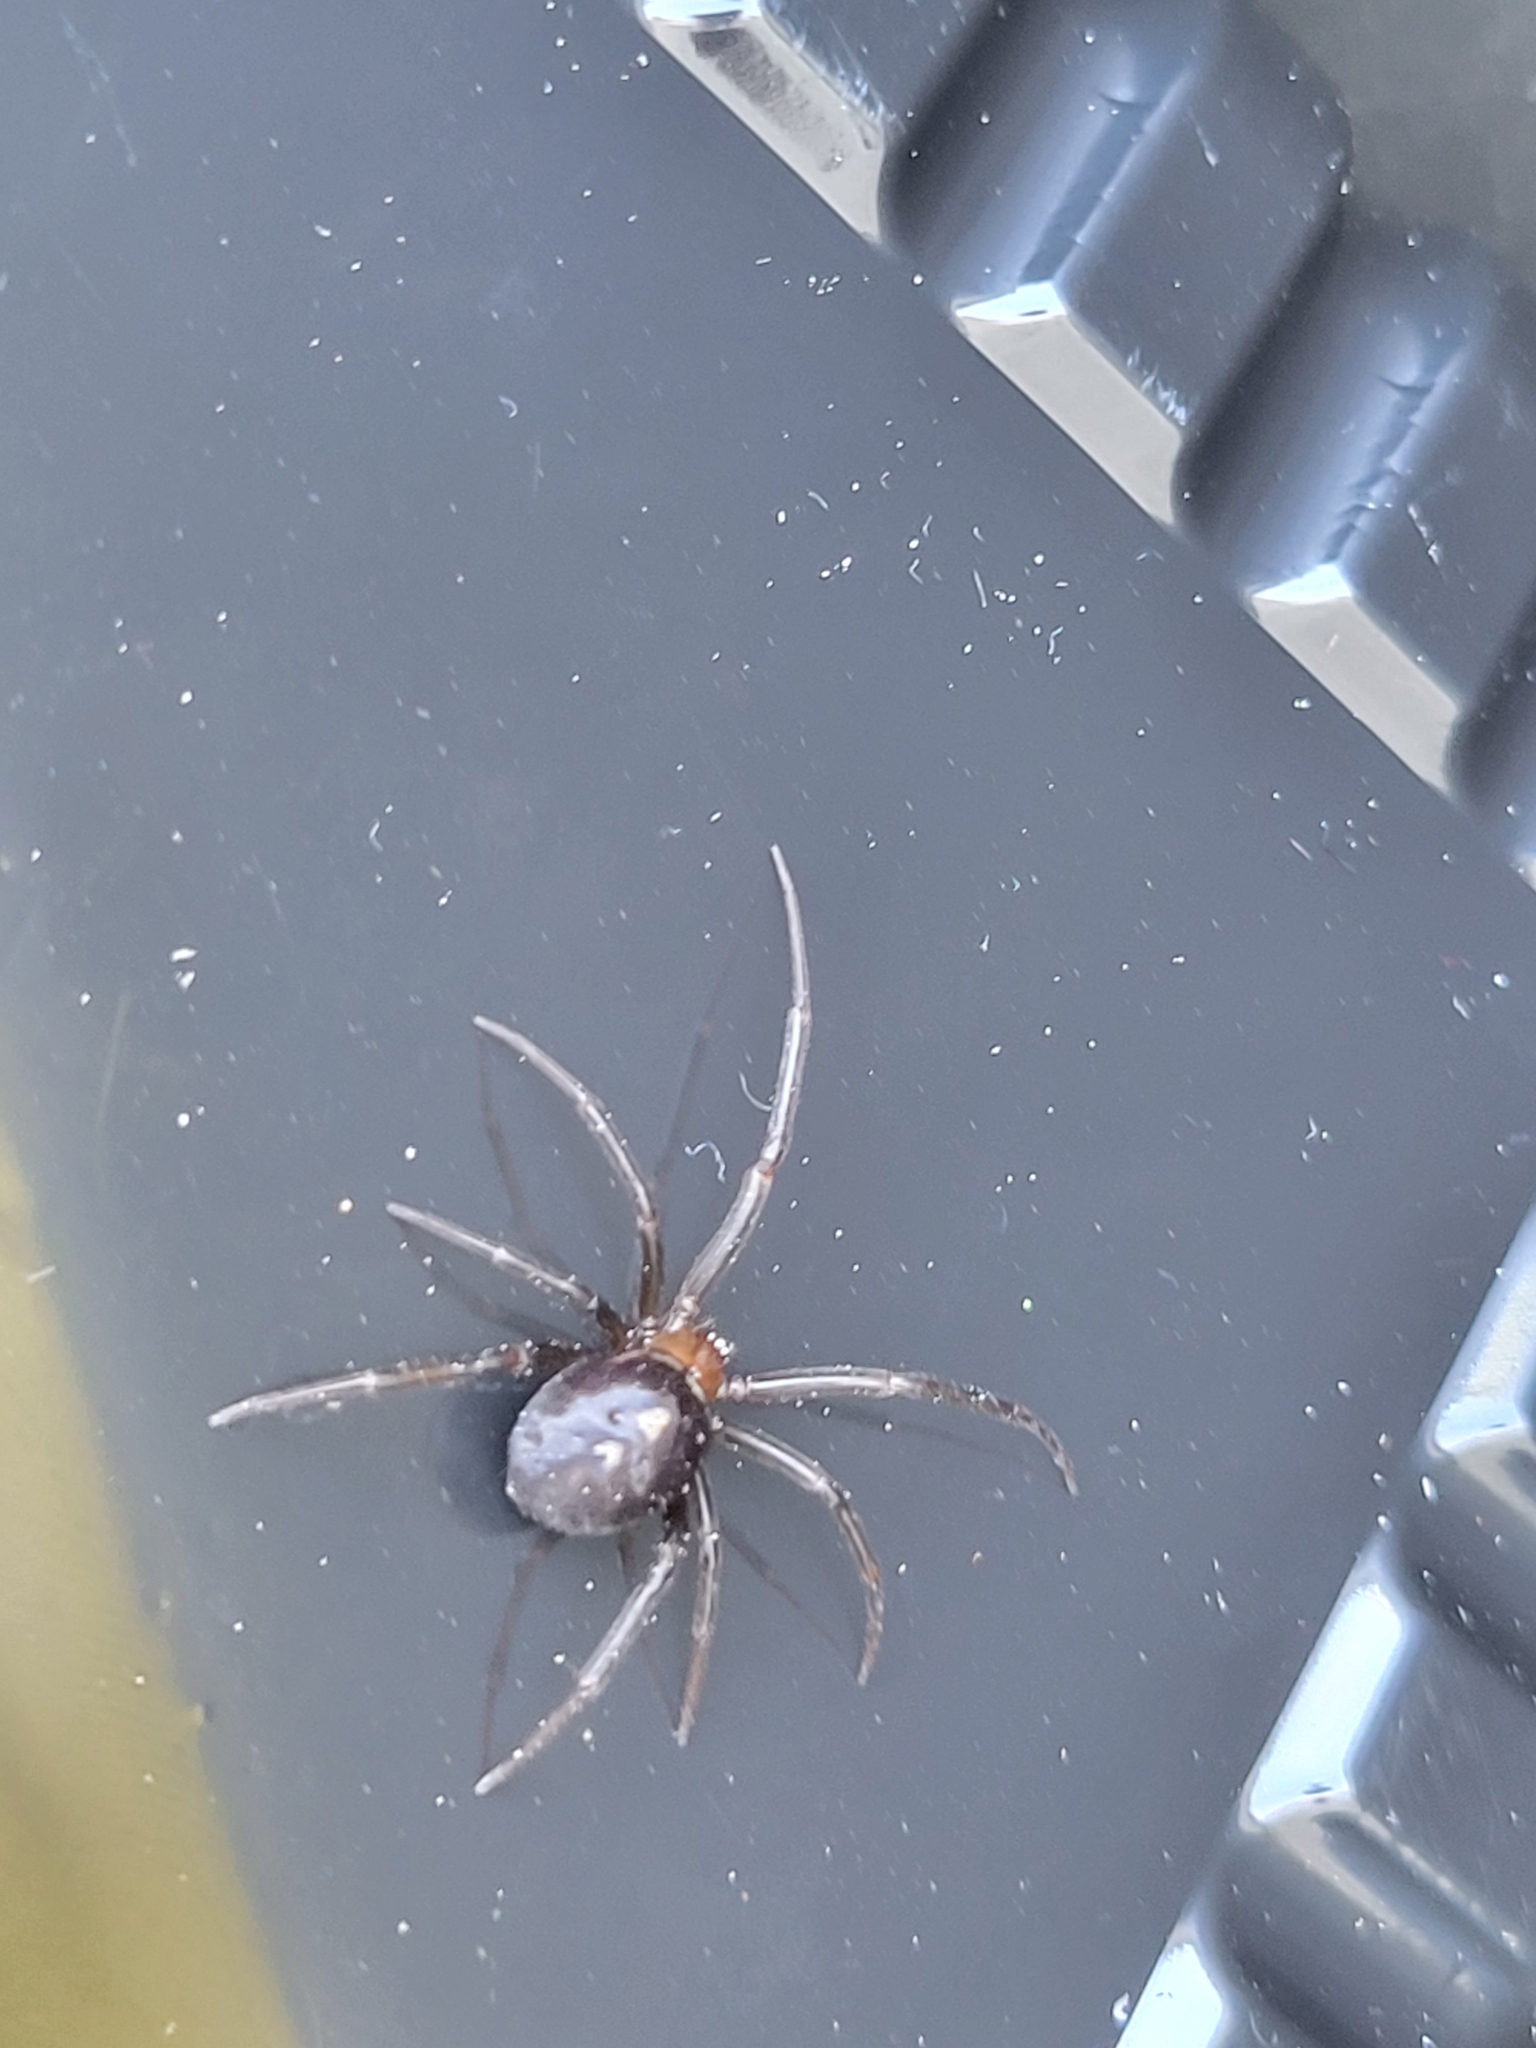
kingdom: Animalia
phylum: Arthropoda
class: Arachnida
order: Araneae
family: Theridiidae
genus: Steatoda
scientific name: Steatoda grossa
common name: False black widow
